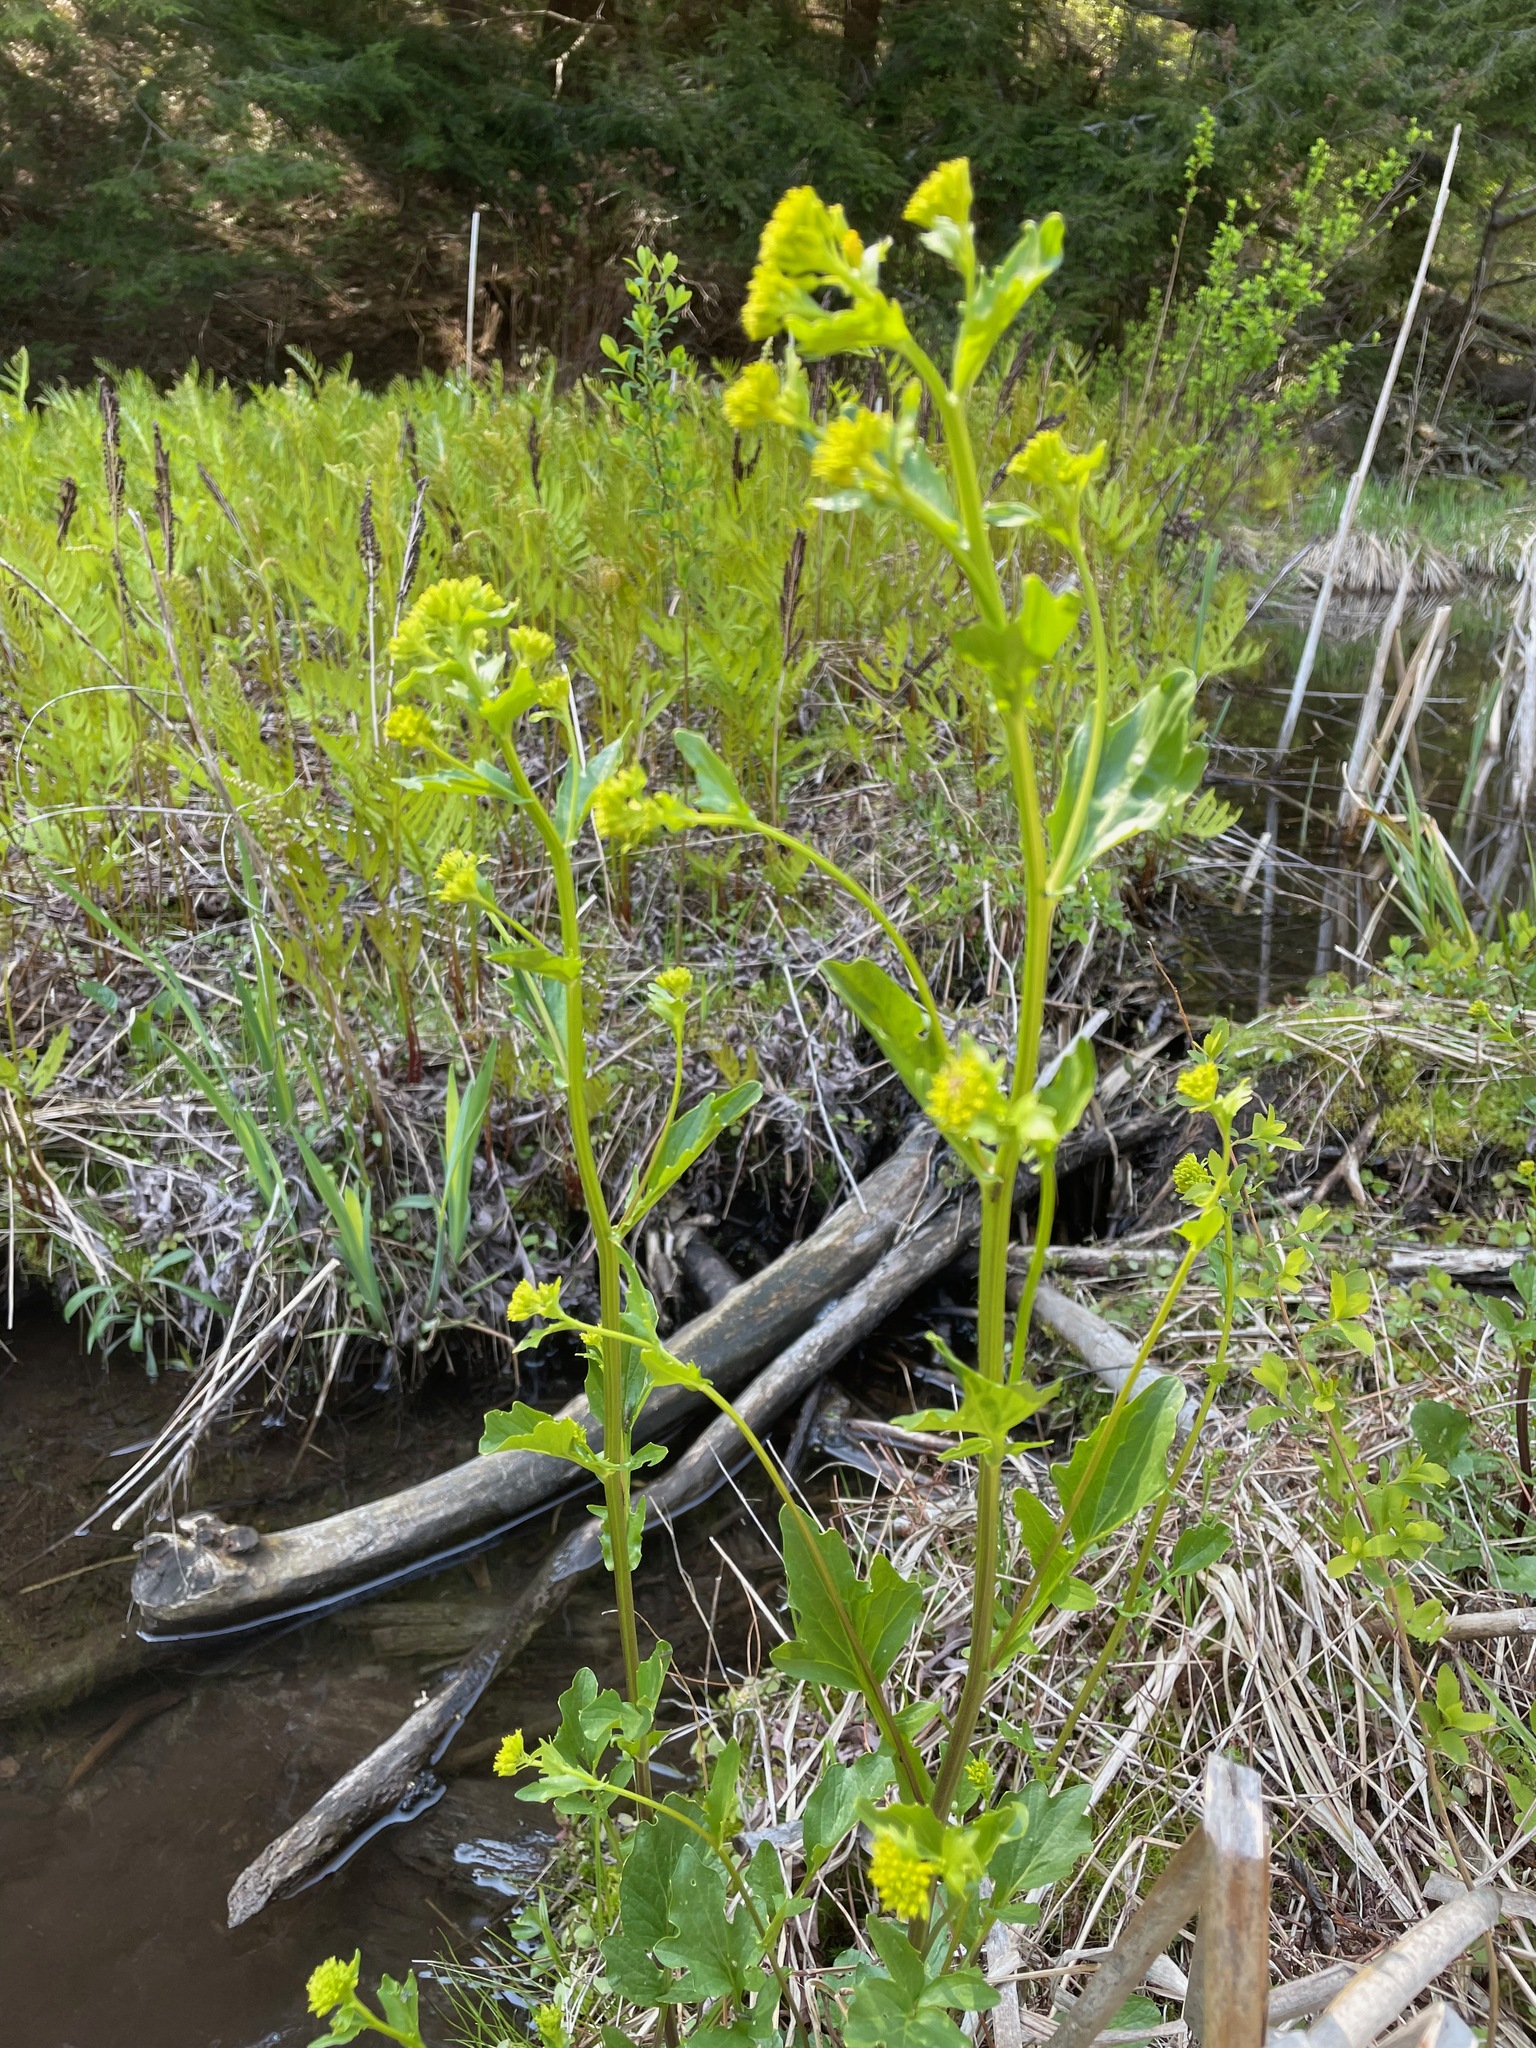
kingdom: Plantae
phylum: Tracheophyta
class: Magnoliopsida
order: Brassicales
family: Brassicaceae
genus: Barbarea
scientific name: Barbarea vulgaris
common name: Cressy-greens
